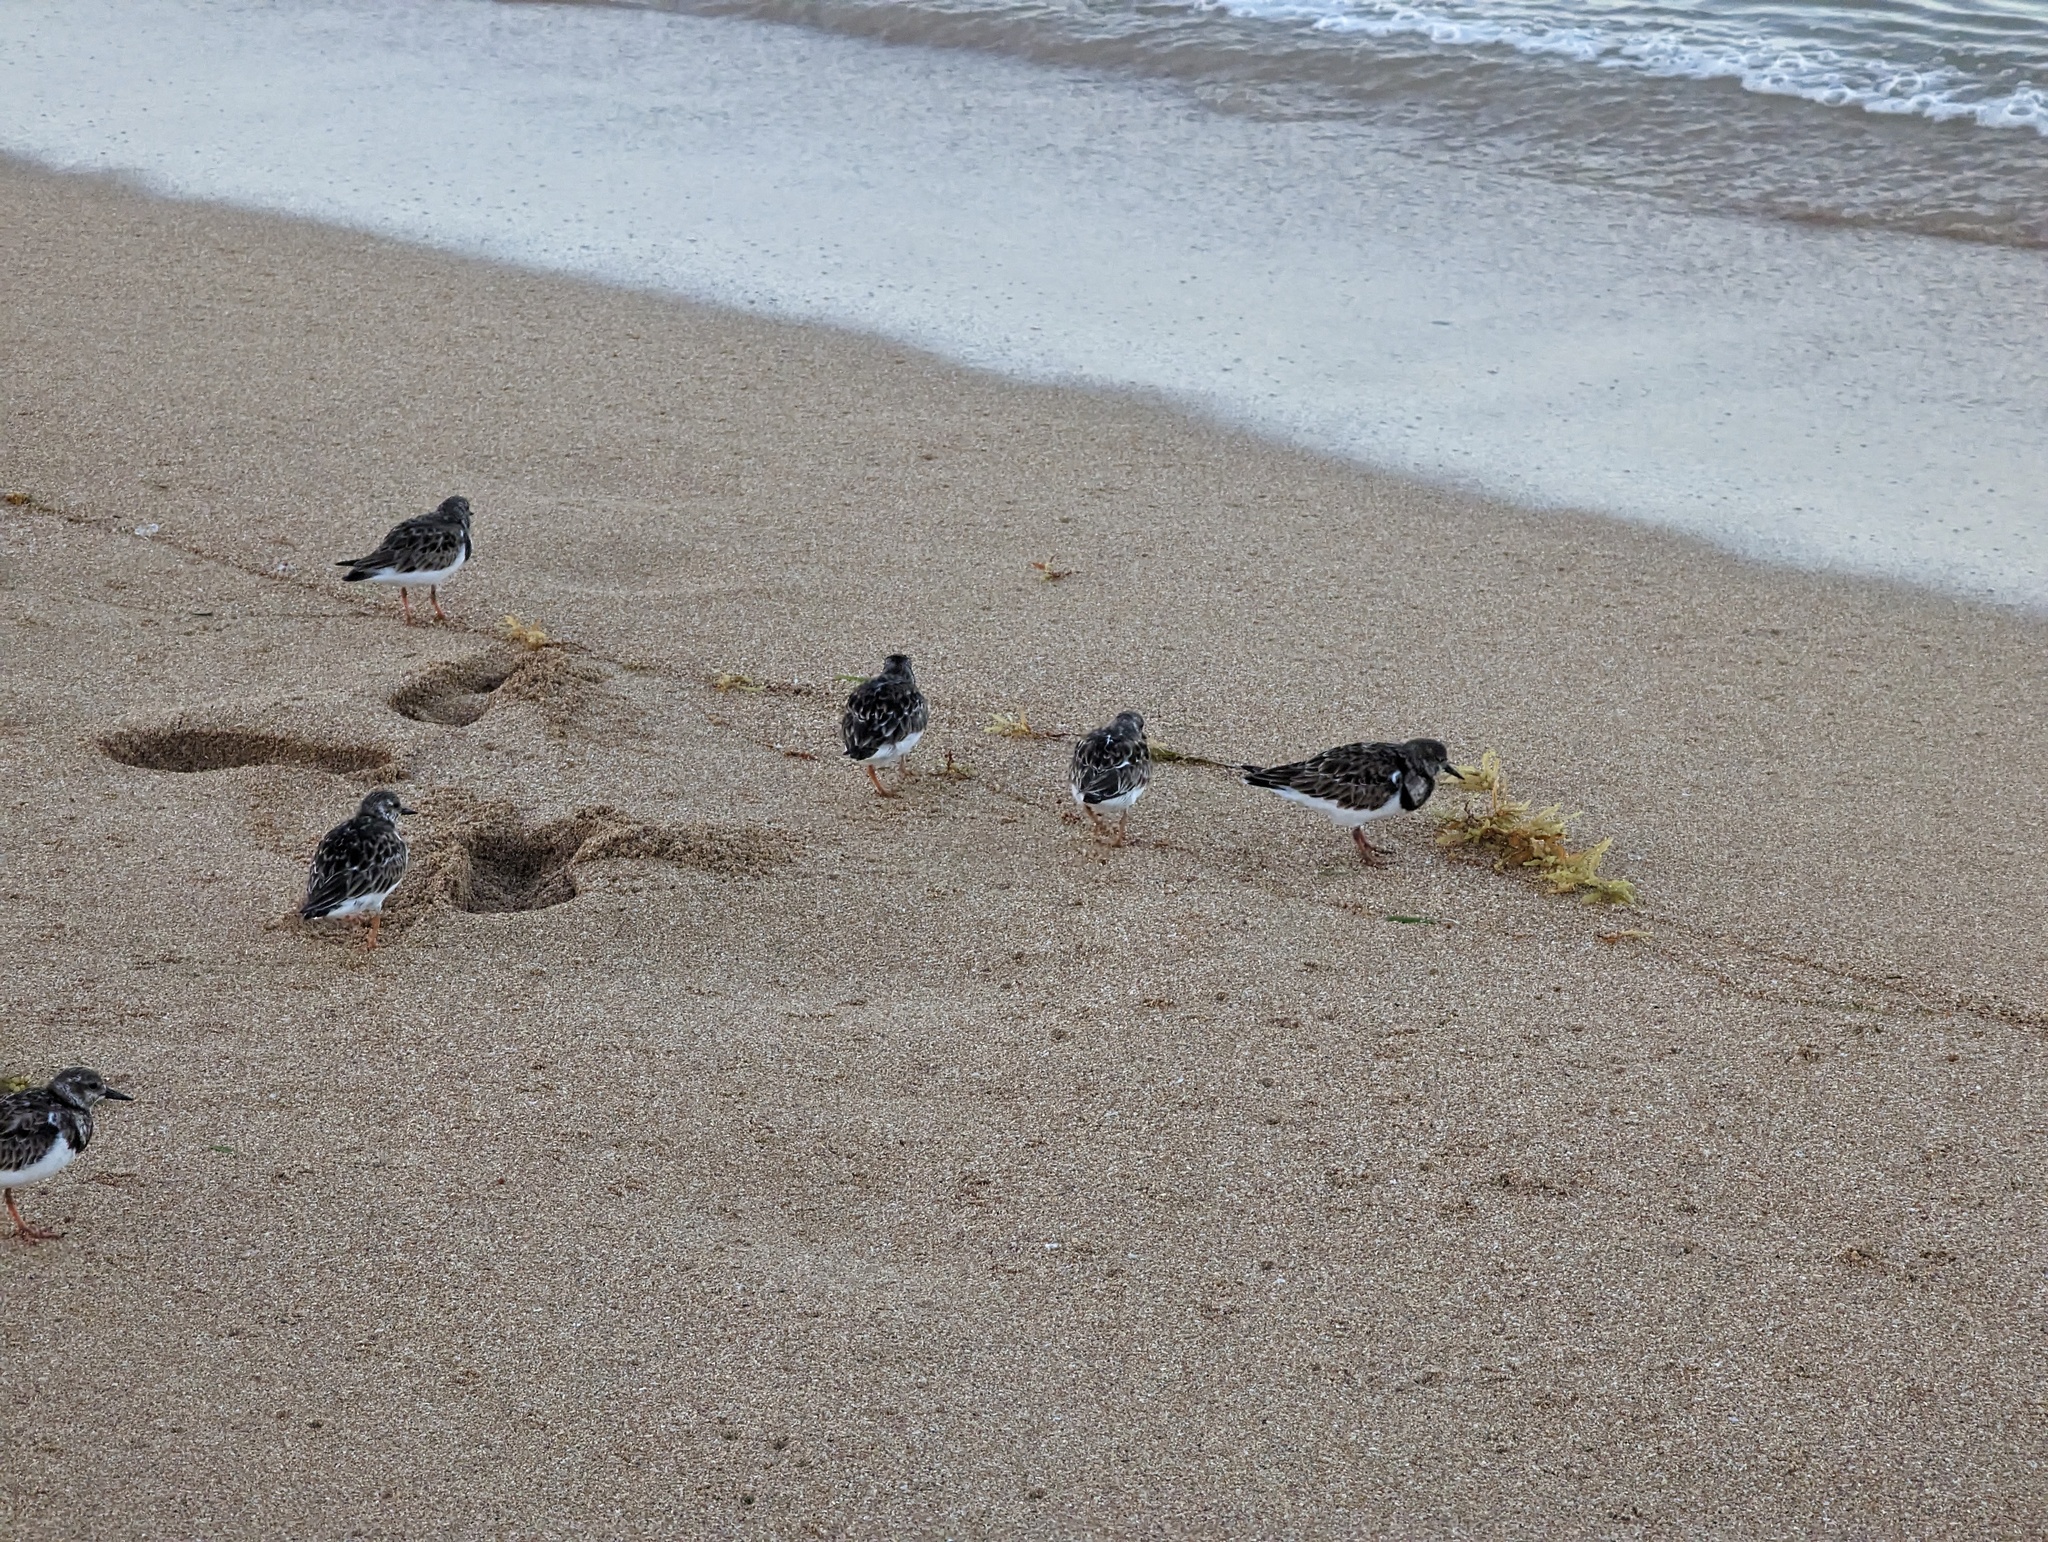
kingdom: Animalia
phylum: Chordata
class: Aves
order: Charadriiformes
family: Scolopacidae
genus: Arenaria
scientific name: Arenaria interpres
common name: Ruddy turnstone
